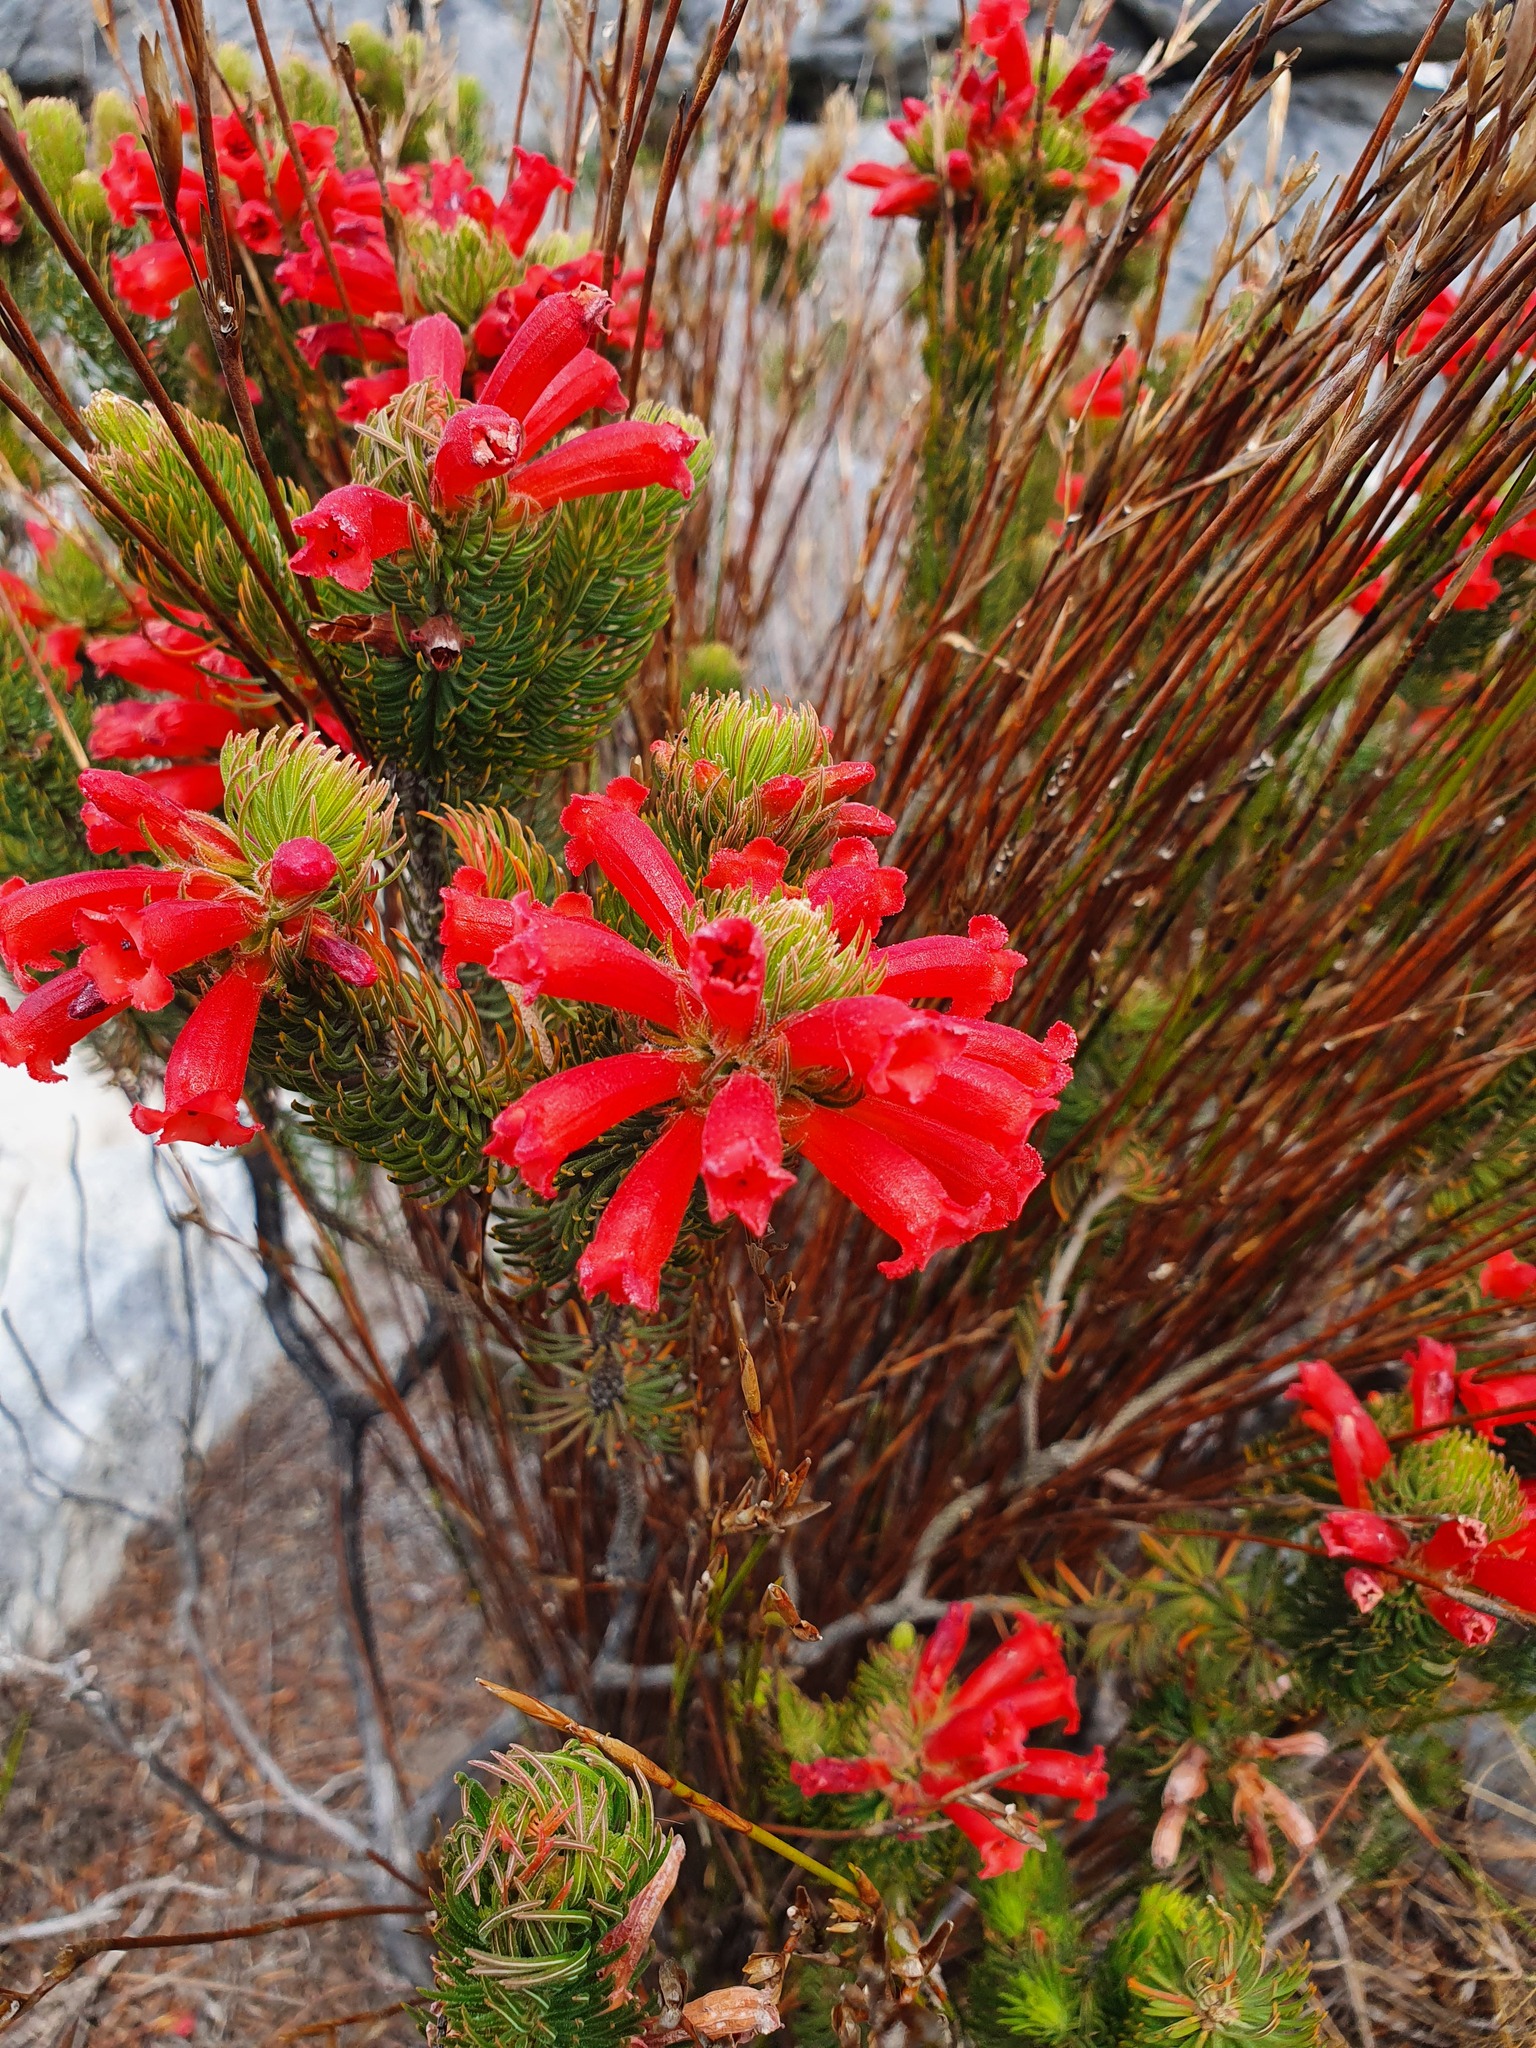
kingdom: Plantae
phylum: Tracheophyta
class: Magnoliopsida
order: Ericales
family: Ericaceae
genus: Erica
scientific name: Erica viscaria
